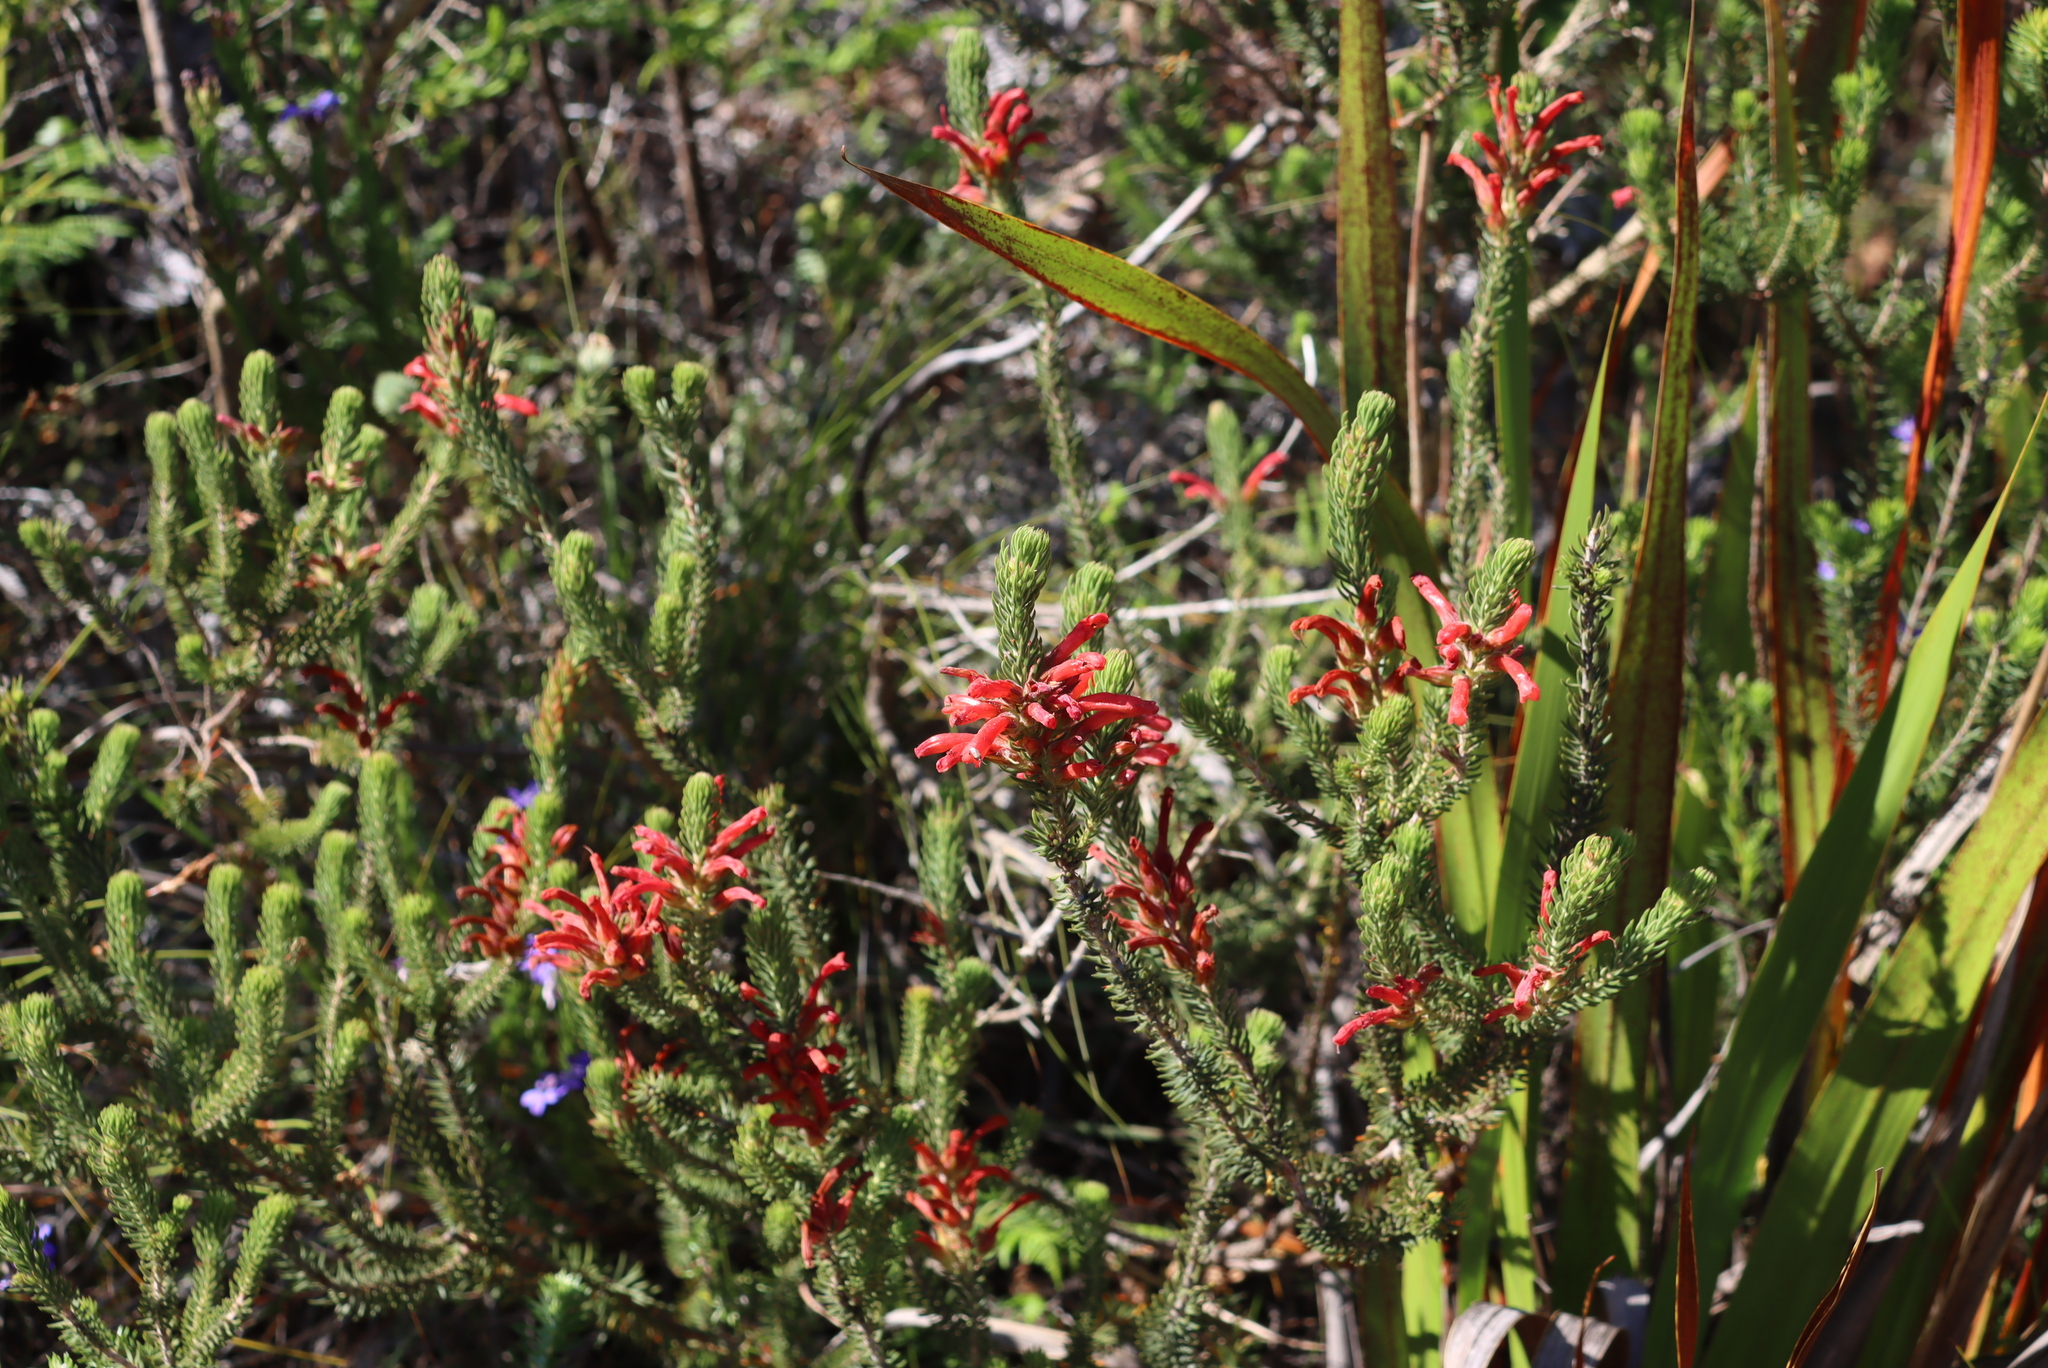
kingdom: Plantae
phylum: Tracheophyta
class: Magnoliopsida
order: Ericales
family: Ericaceae
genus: Erica
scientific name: Erica abietina
